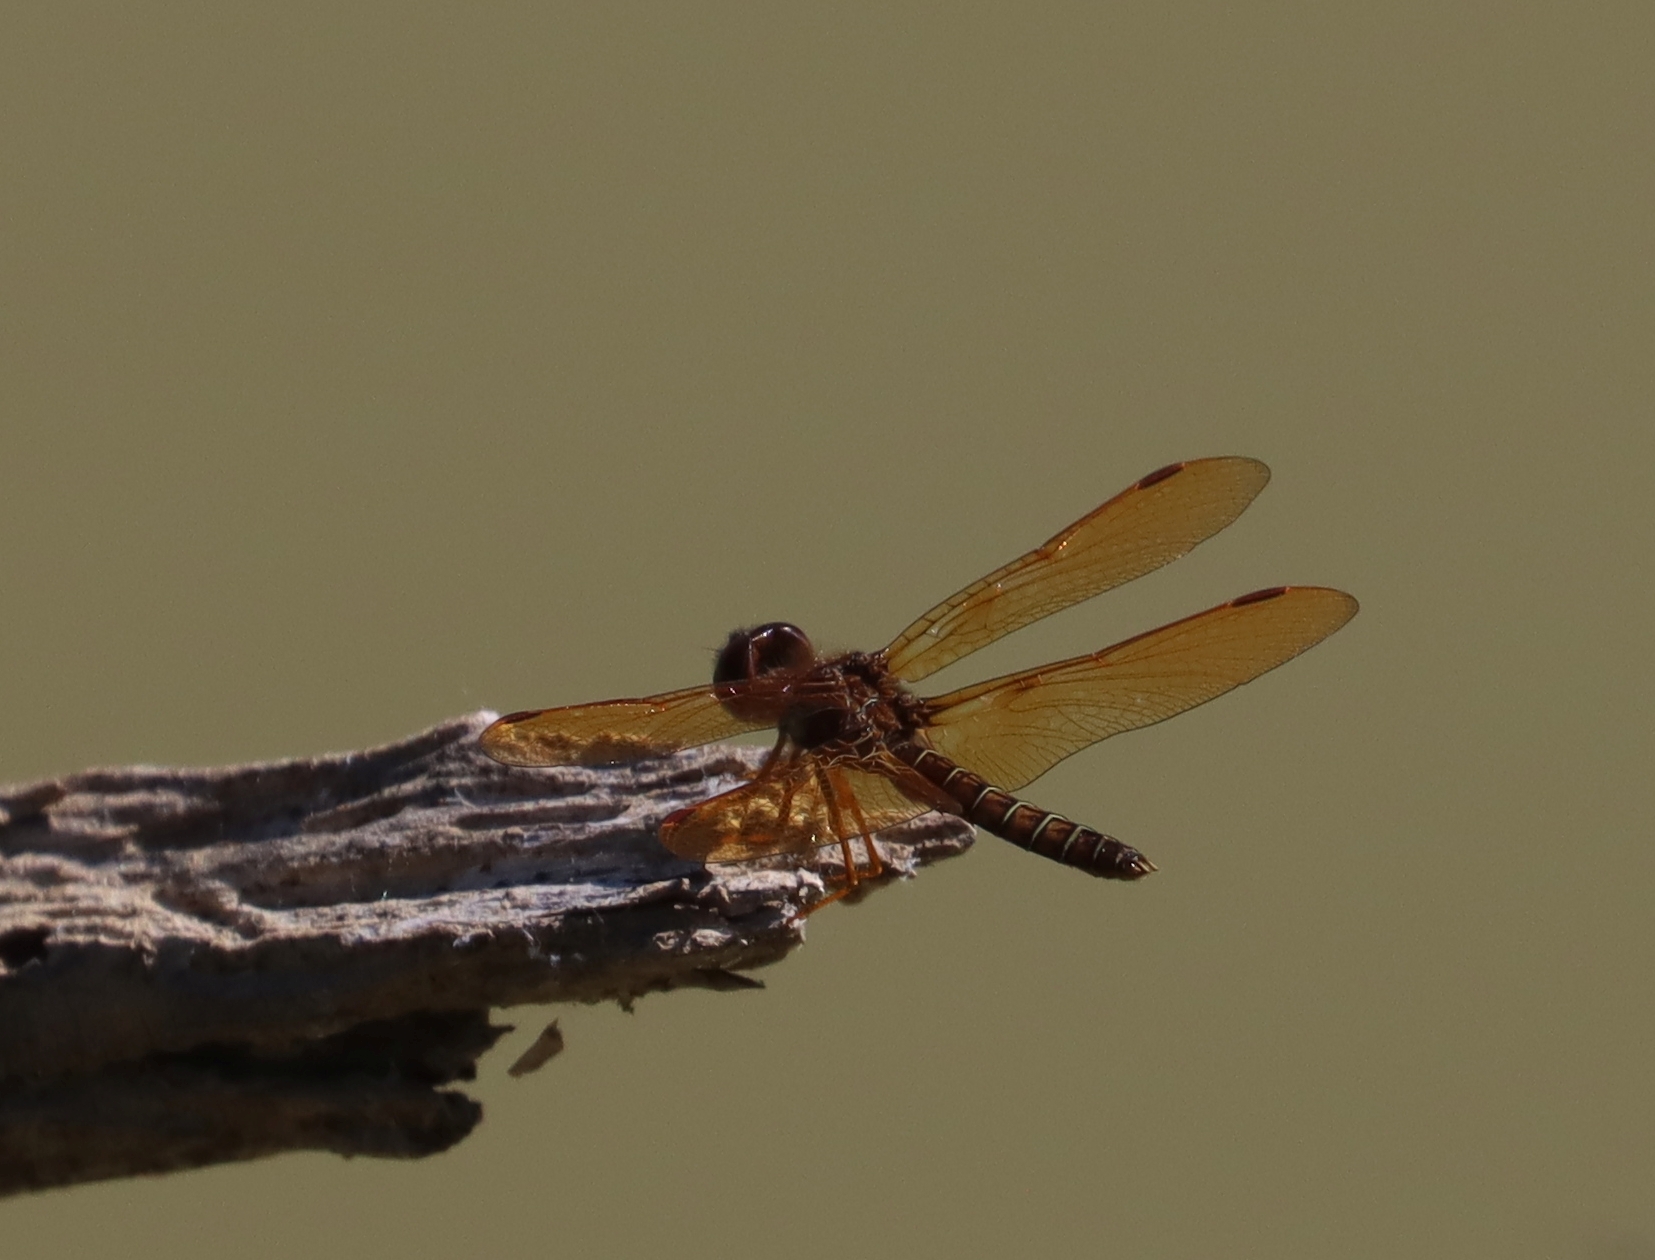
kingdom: Animalia
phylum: Arthropoda
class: Insecta
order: Odonata
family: Libellulidae
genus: Perithemis
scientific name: Perithemis tenera
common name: Eastern amberwing
